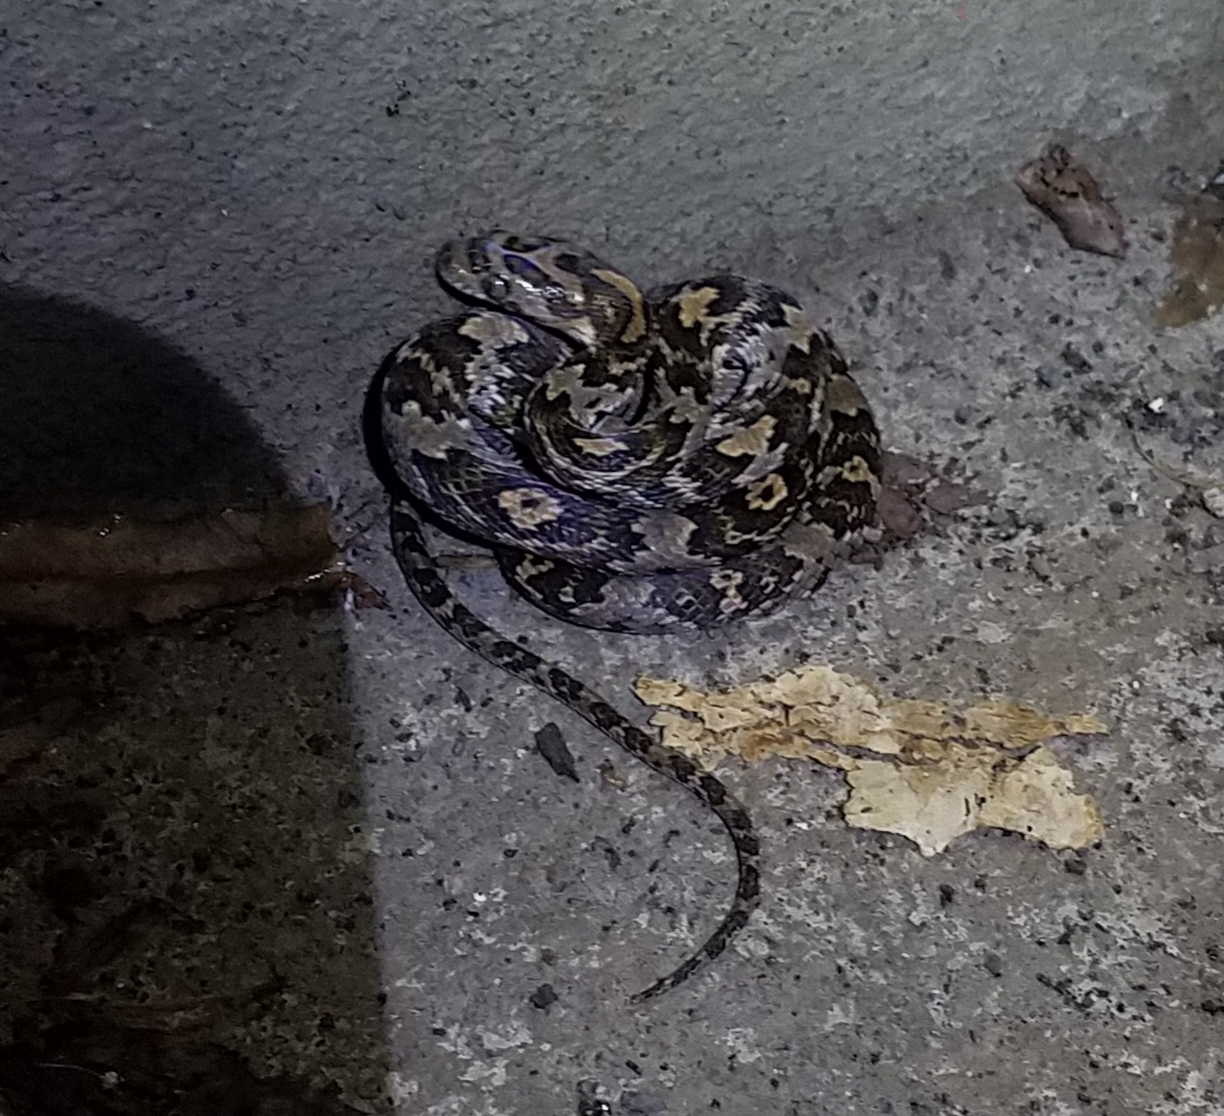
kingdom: Animalia
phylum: Chordata
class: Squamata
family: Colubridae
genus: Trimorphodon
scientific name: Trimorphodon quadruplex
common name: Central american lyre snake
